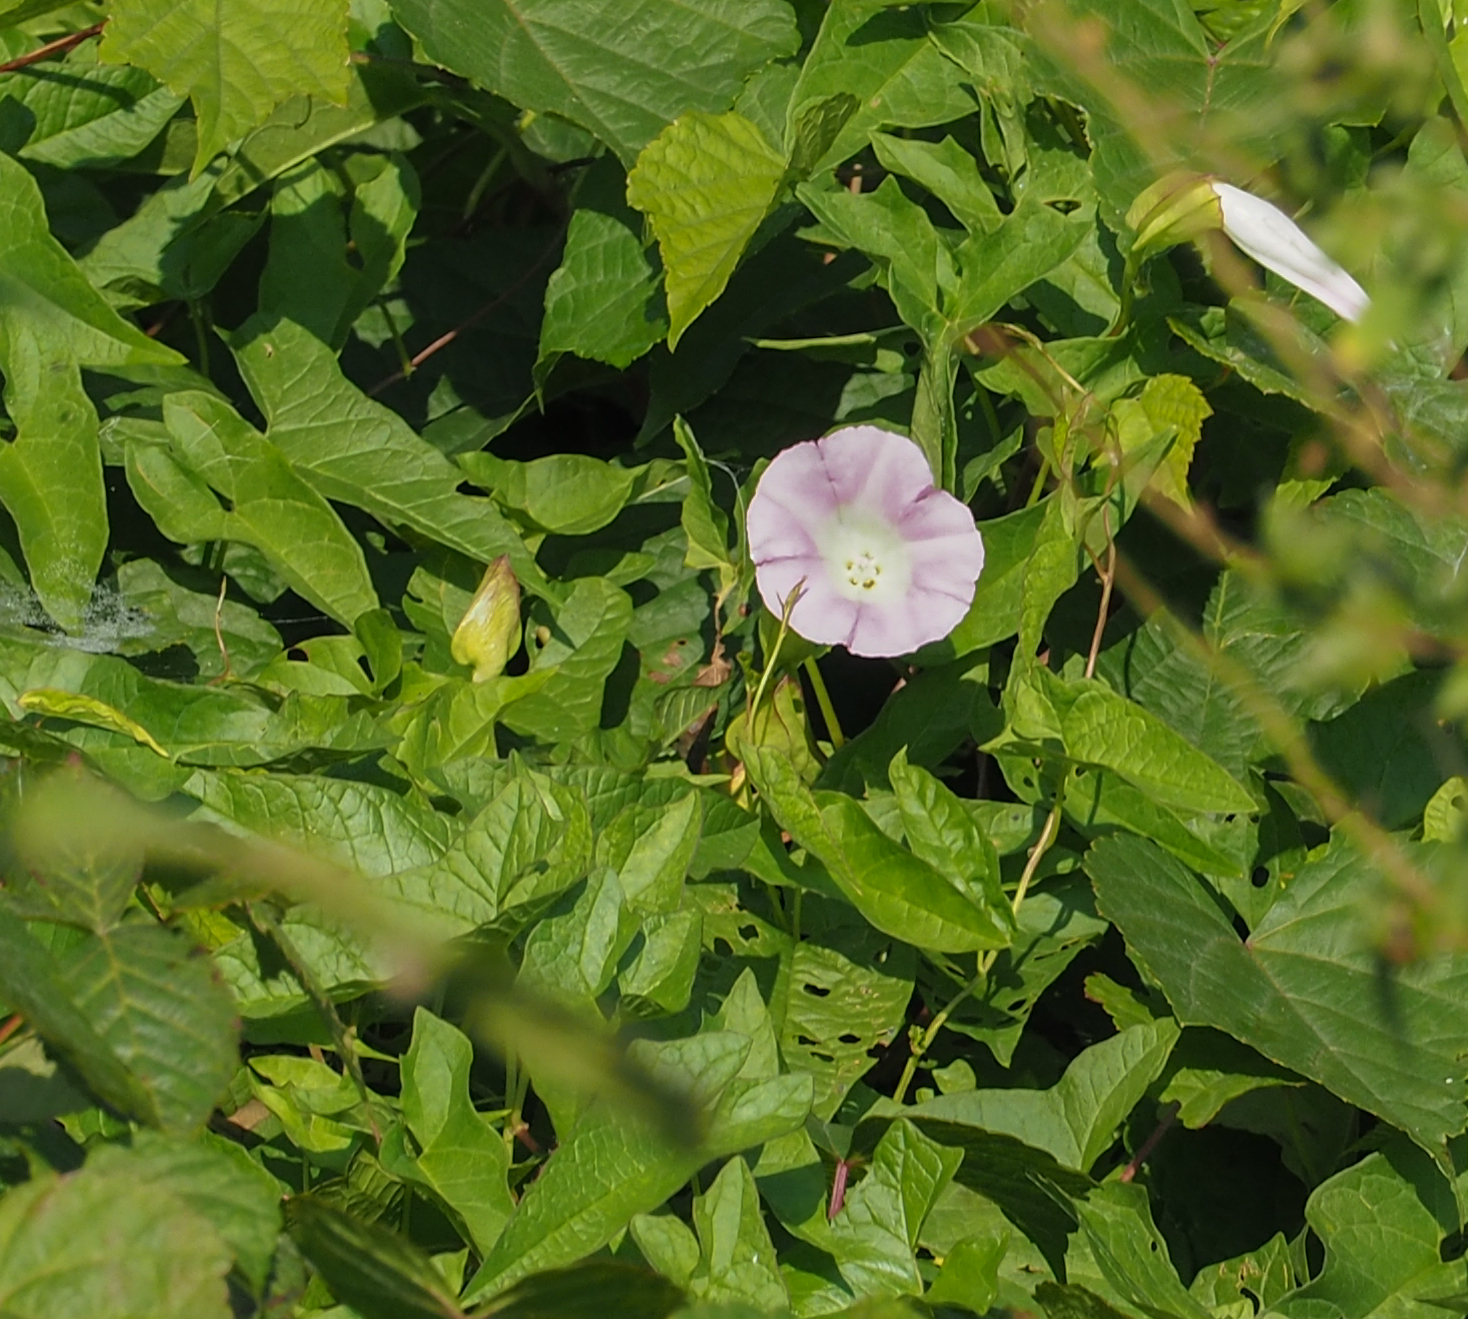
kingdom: Plantae
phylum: Tracheophyta
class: Magnoliopsida
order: Solanales
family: Convolvulaceae
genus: Calystegia
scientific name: Calystegia sepium
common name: Hedge bindweed
